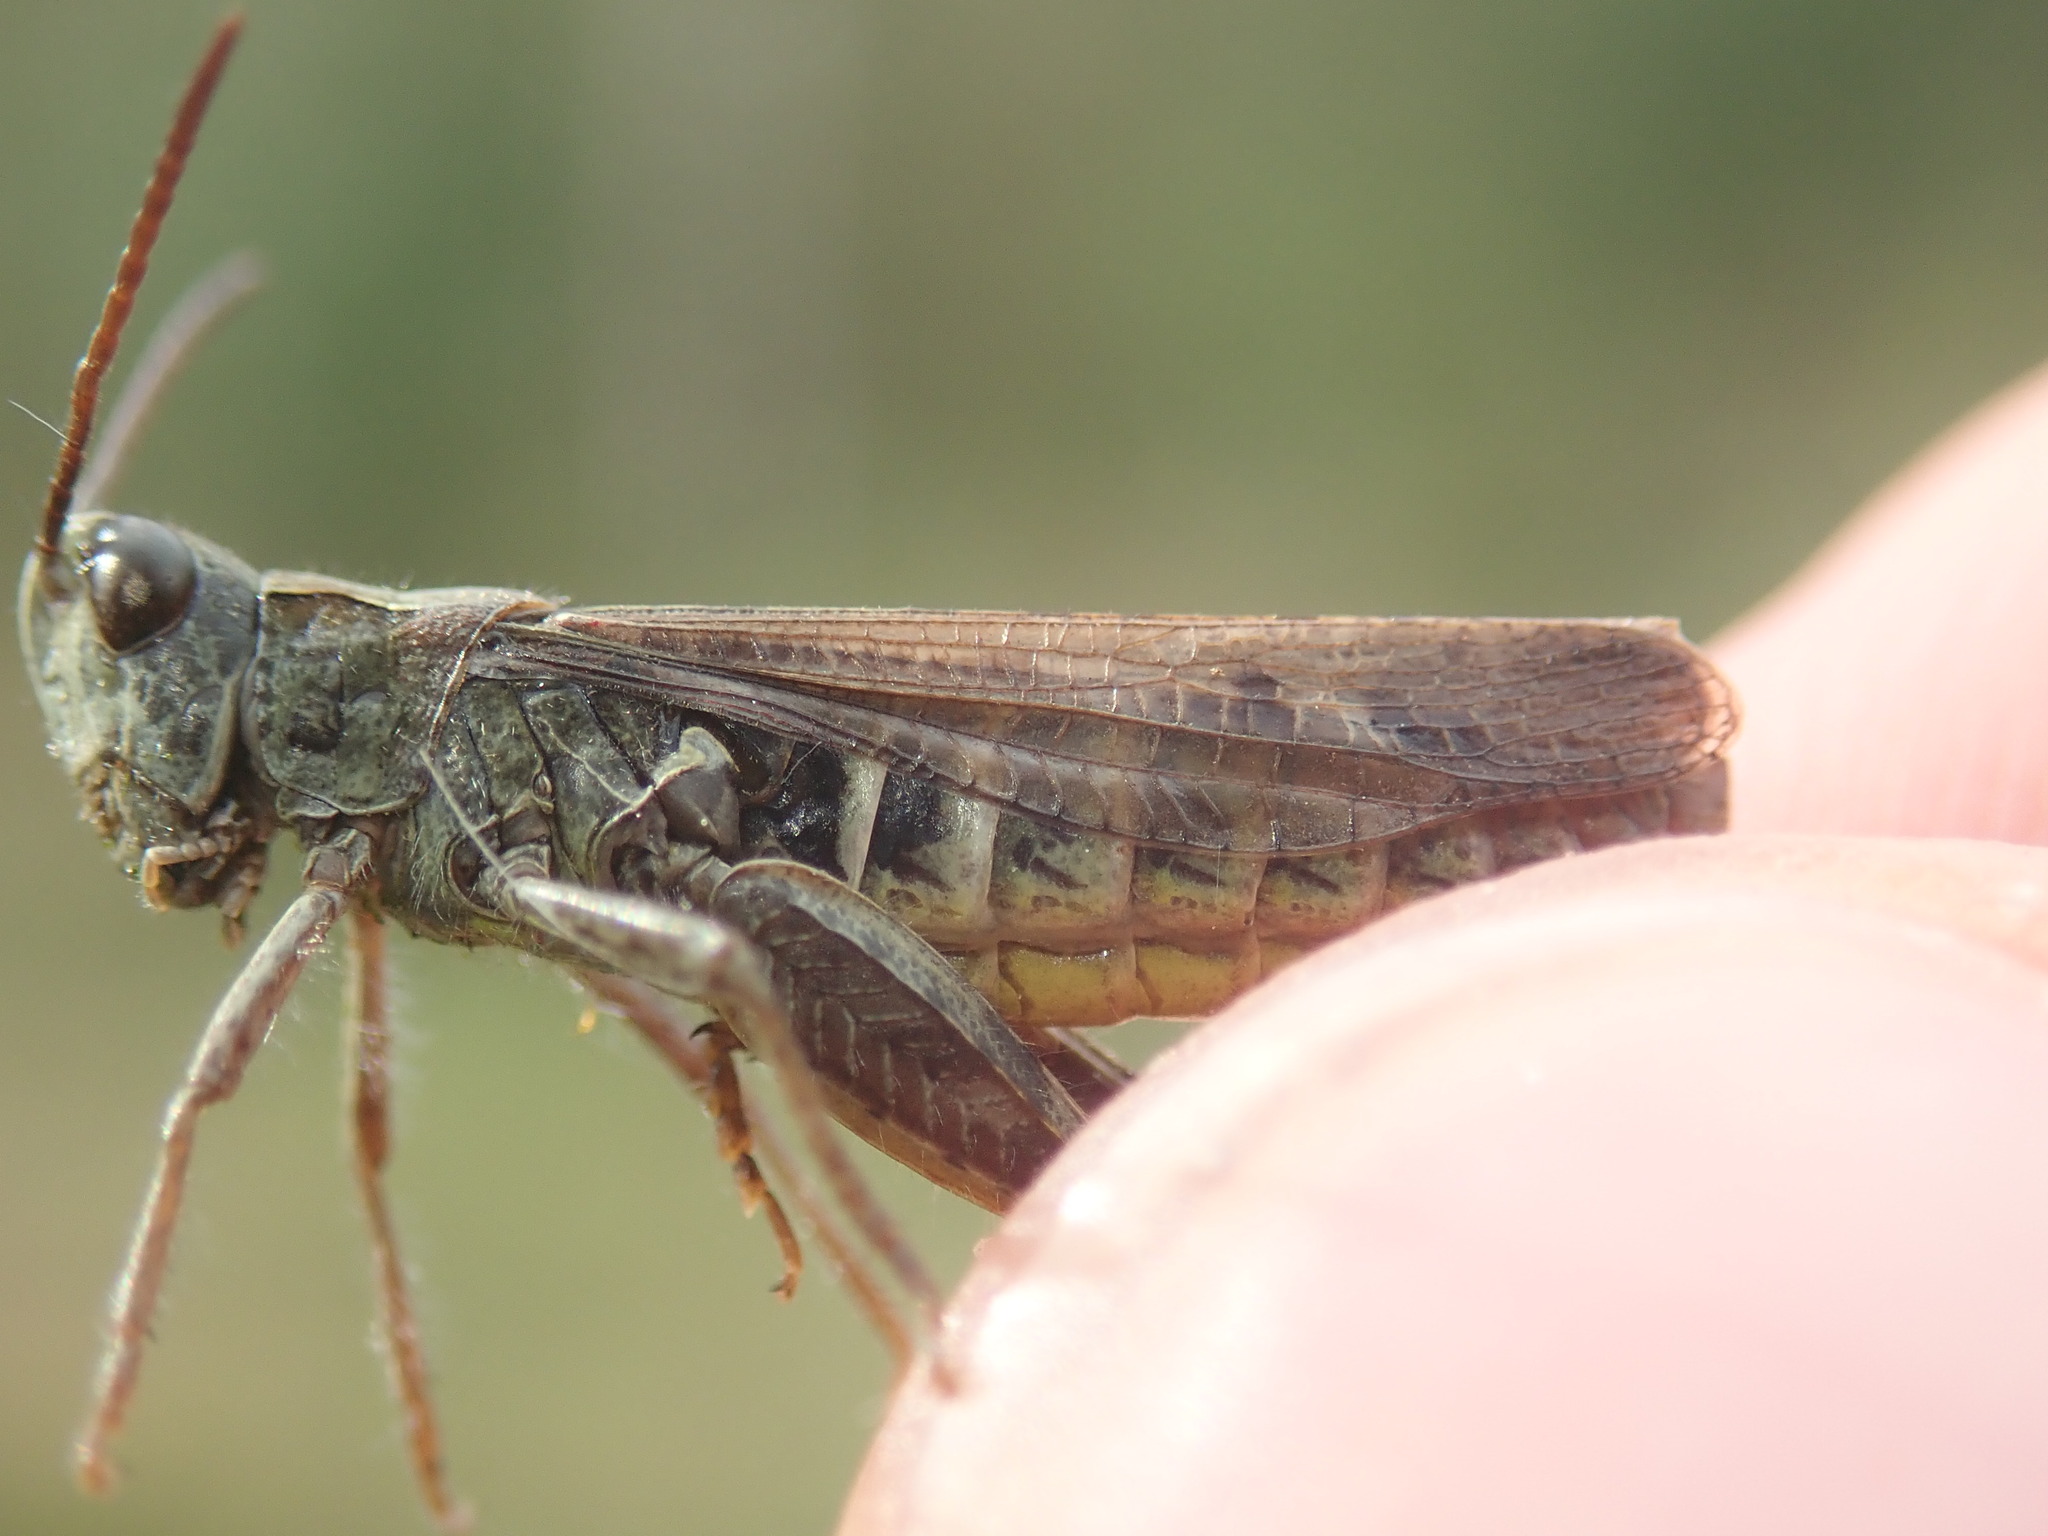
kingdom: Animalia
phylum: Arthropoda
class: Insecta
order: Orthoptera
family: Acrididae
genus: Chorthippus
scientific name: Chorthippus biguttulus
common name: Bow-winged grasshopper
